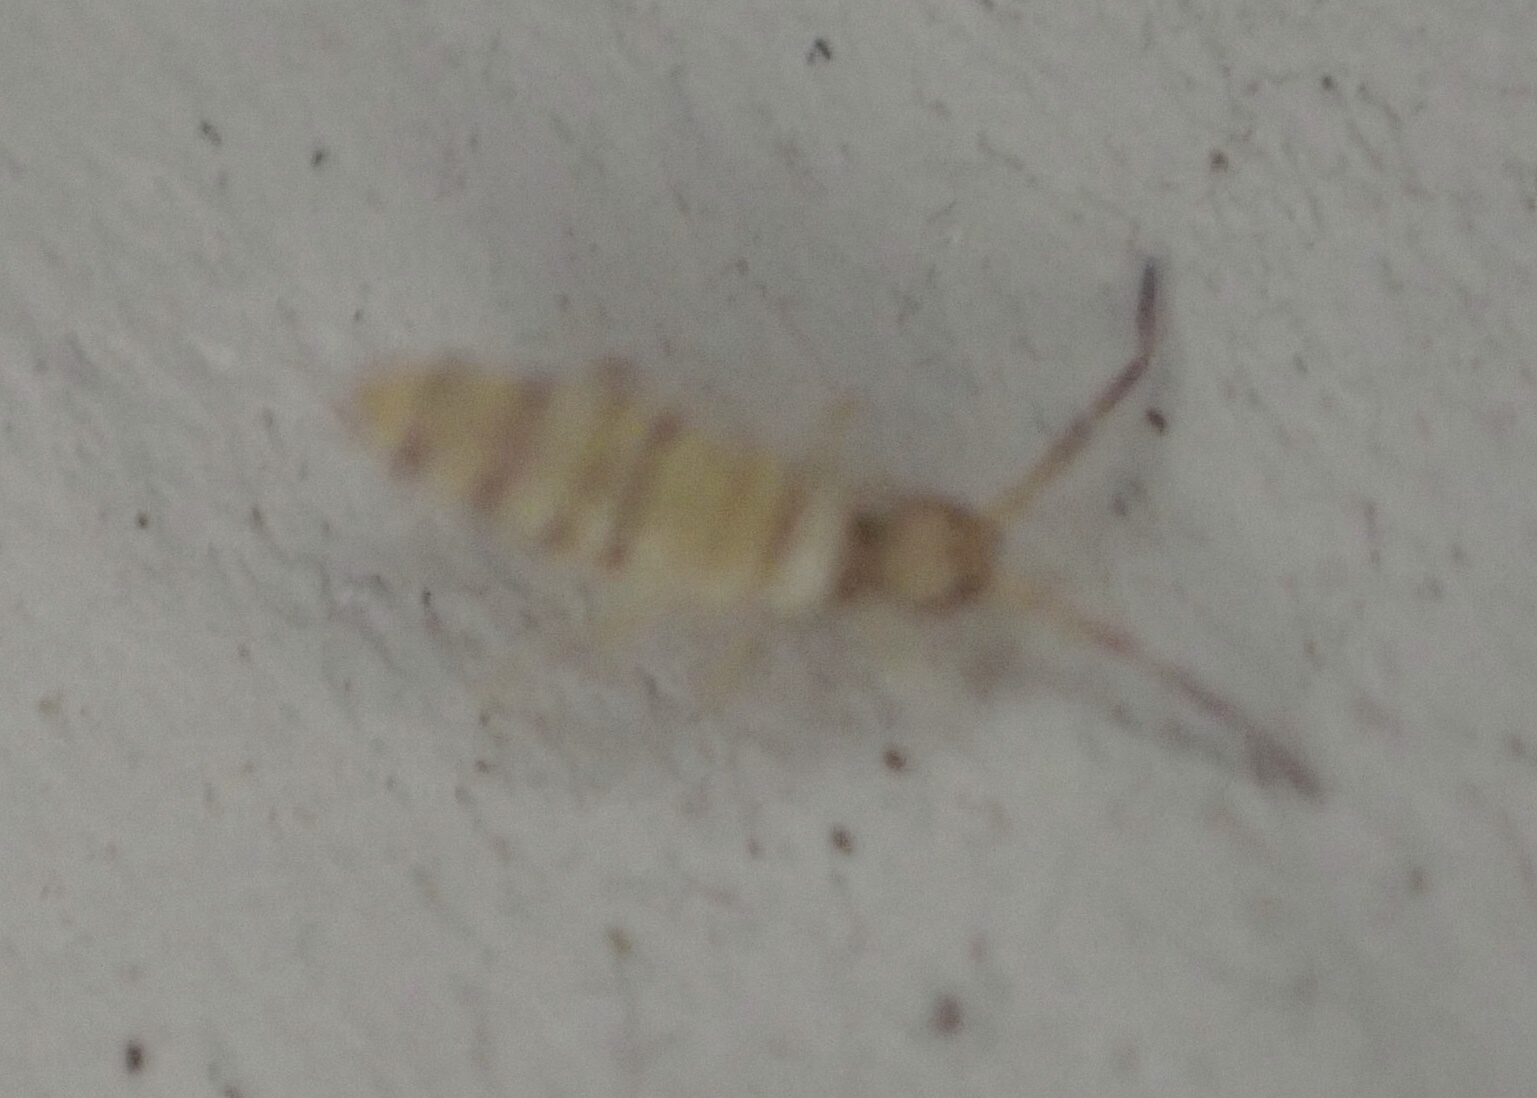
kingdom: Animalia
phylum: Arthropoda
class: Collembola
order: Entomobryomorpha
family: Entomobryidae
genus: Entomobrya
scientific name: Entomobrya atrocincta
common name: Springtail
